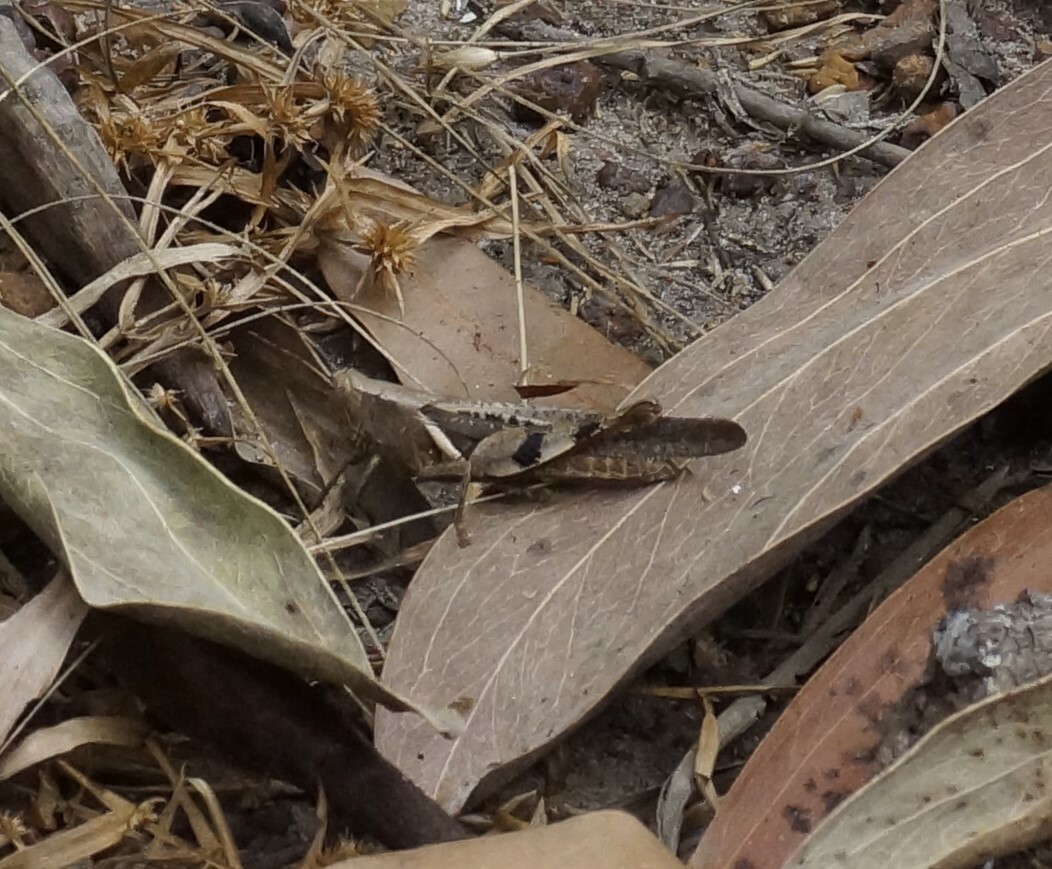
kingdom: Animalia
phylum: Arthropoda
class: Insecta
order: Orthoptera
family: Acrididae
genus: Stenocatantops
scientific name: Stenocatantops angustifrons
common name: Common tropical sharptail
